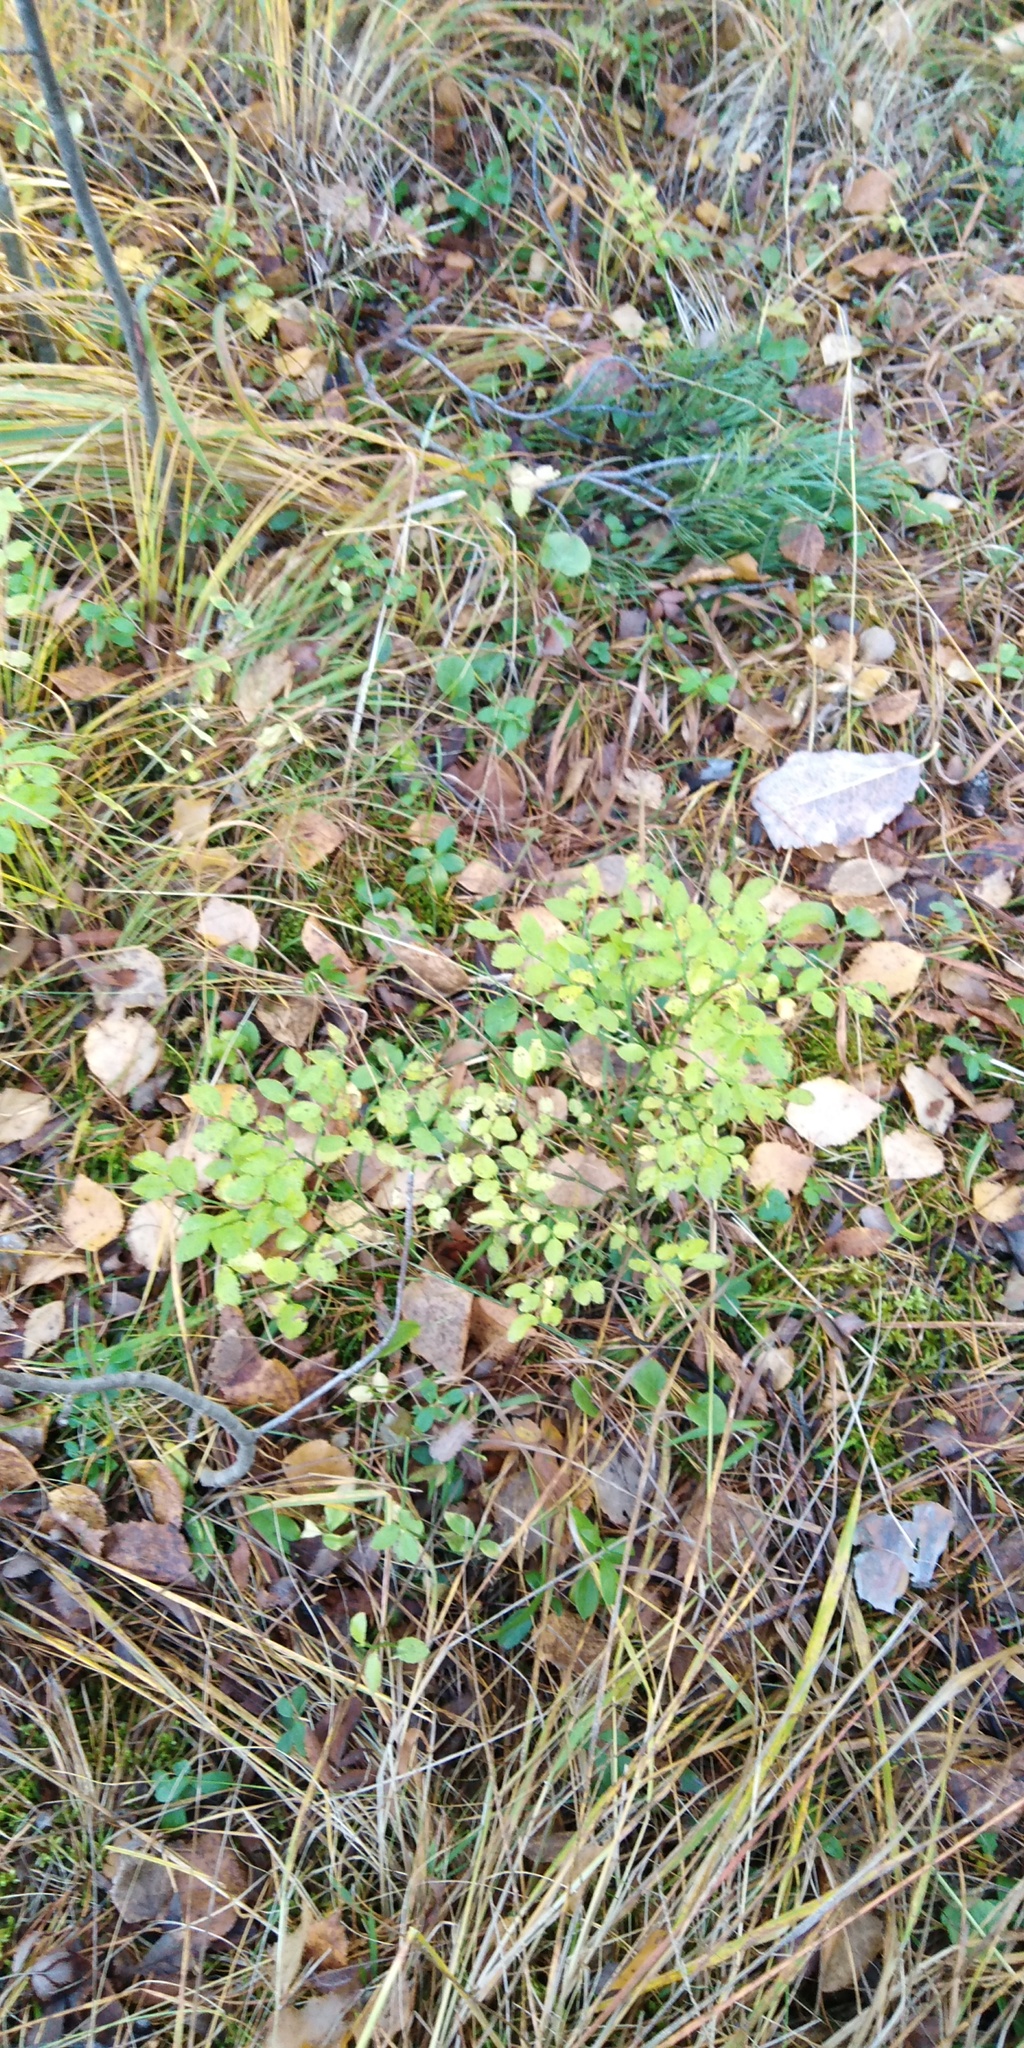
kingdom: Plantae
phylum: Tracheophyta
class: Magnoliopsida
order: Ericales
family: Ericaceae
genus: Vaccinium
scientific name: Vaccinium myrtillus
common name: Bilberry
